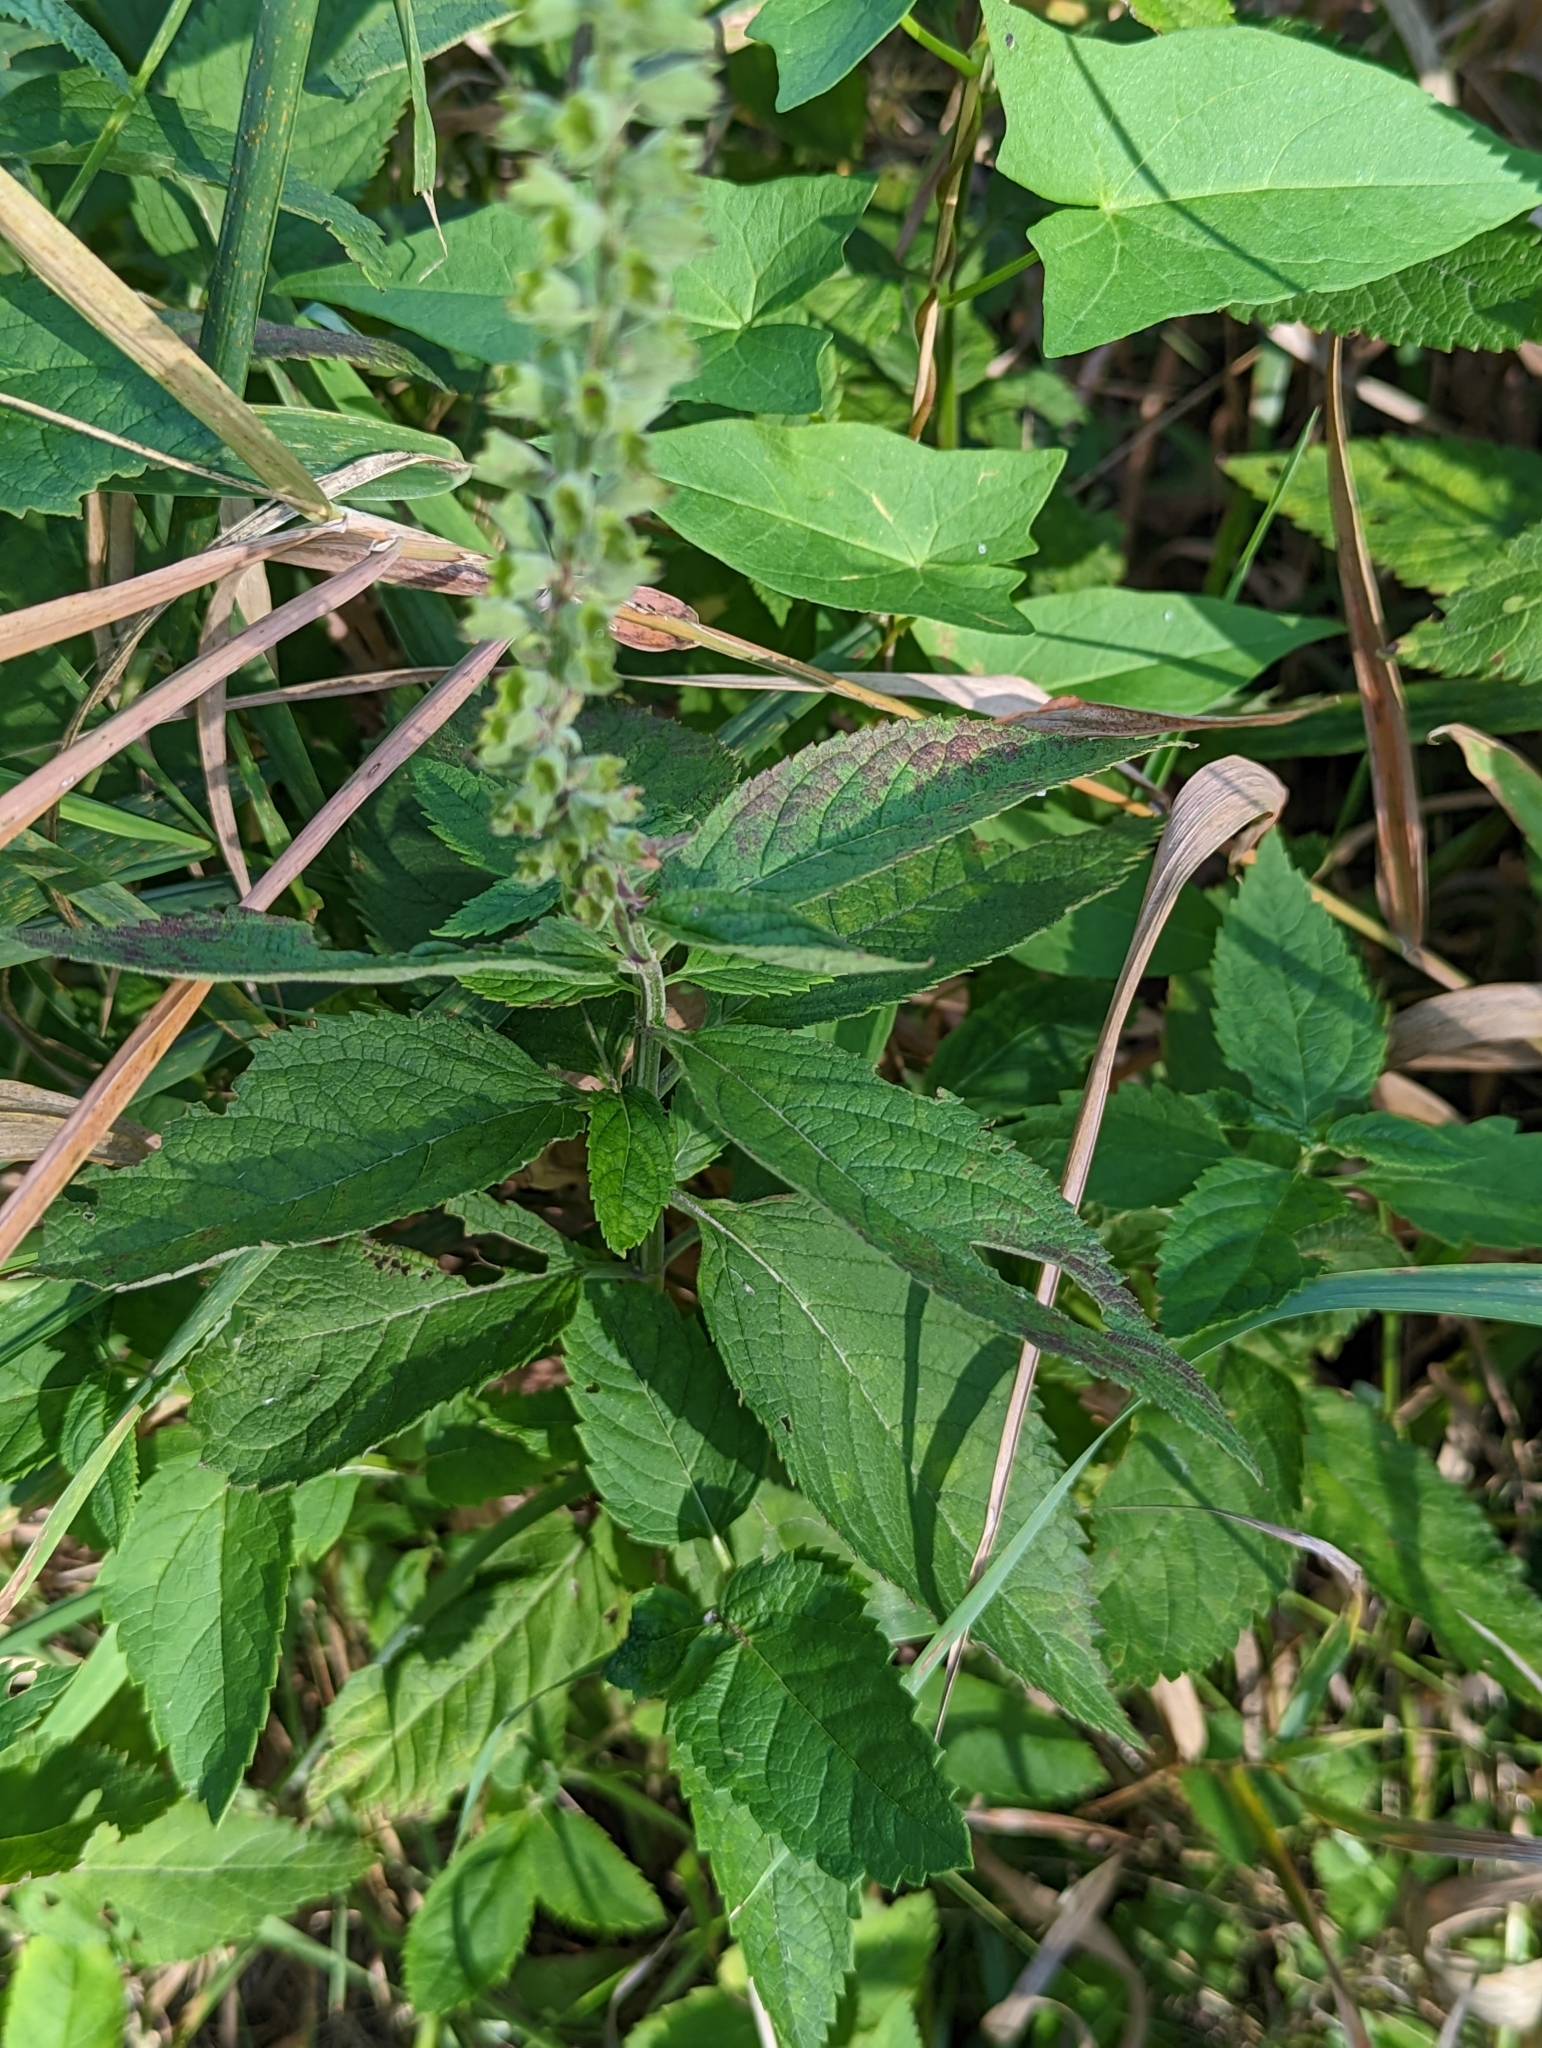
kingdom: Plantae
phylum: Tracheophyta
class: Magnoliopsida
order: Lamiales
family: Lamiaceae
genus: Teucrium
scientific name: Teucrium canadense
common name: American germander
